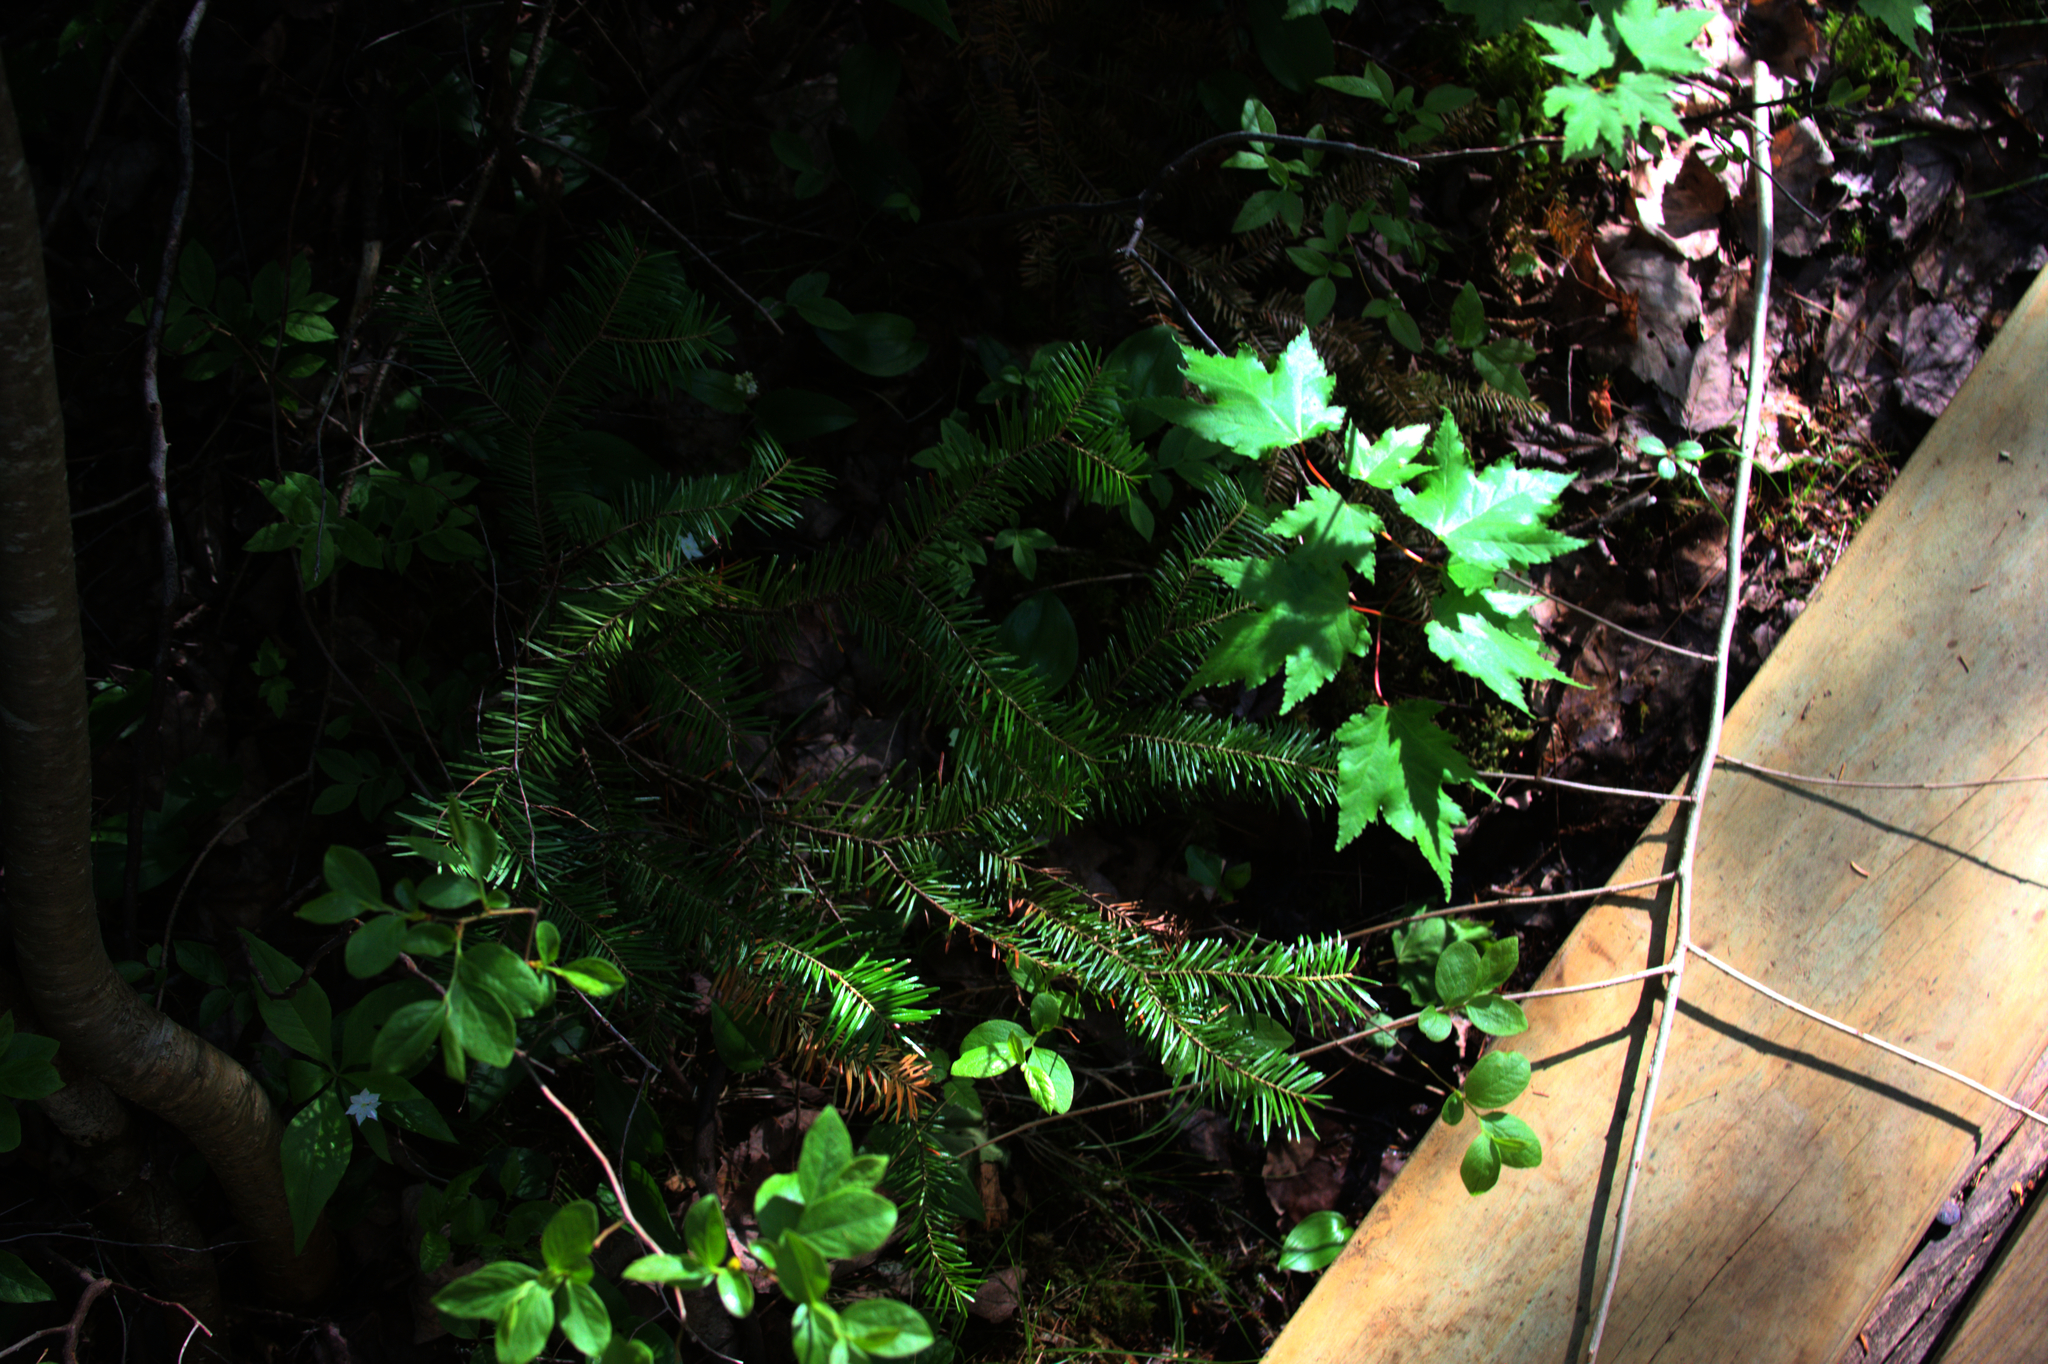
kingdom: Plantae
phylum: Tracheophyta
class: Magnoliopsida
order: Ericales
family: Primulaceae
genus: Lysimachia
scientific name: Lysimachia borealis
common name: American starflower
